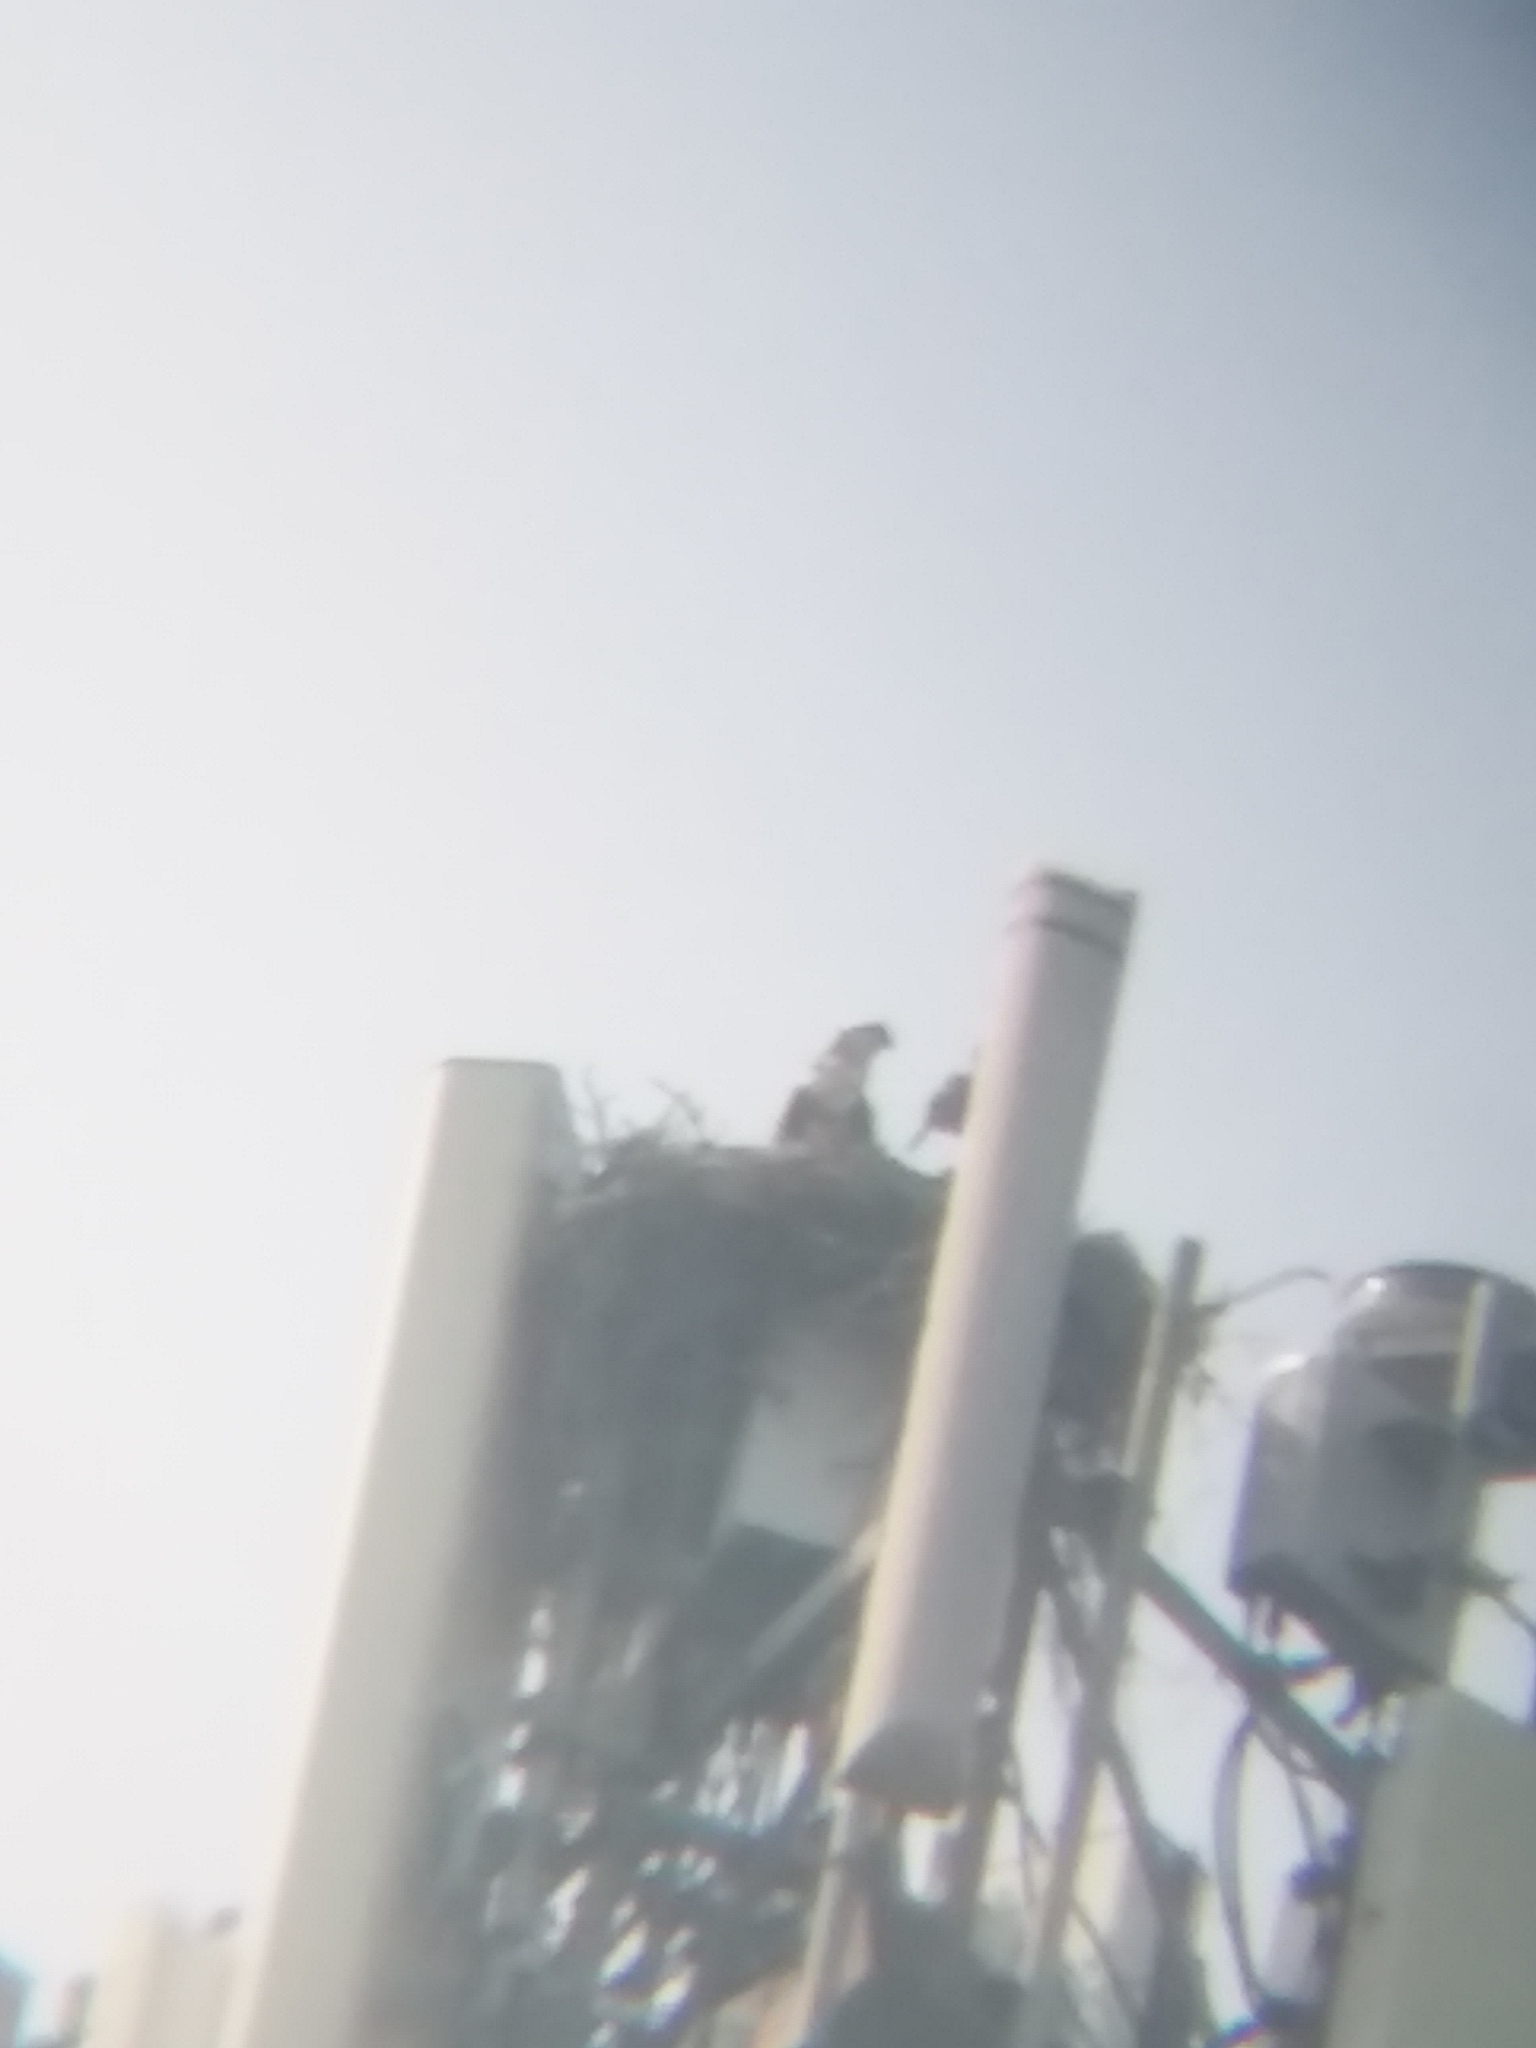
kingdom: Animalia
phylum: Chordata
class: Aves
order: Accipitriformes
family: Pandionidae
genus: Pandion
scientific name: Pandion haliaetus
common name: Osprey
